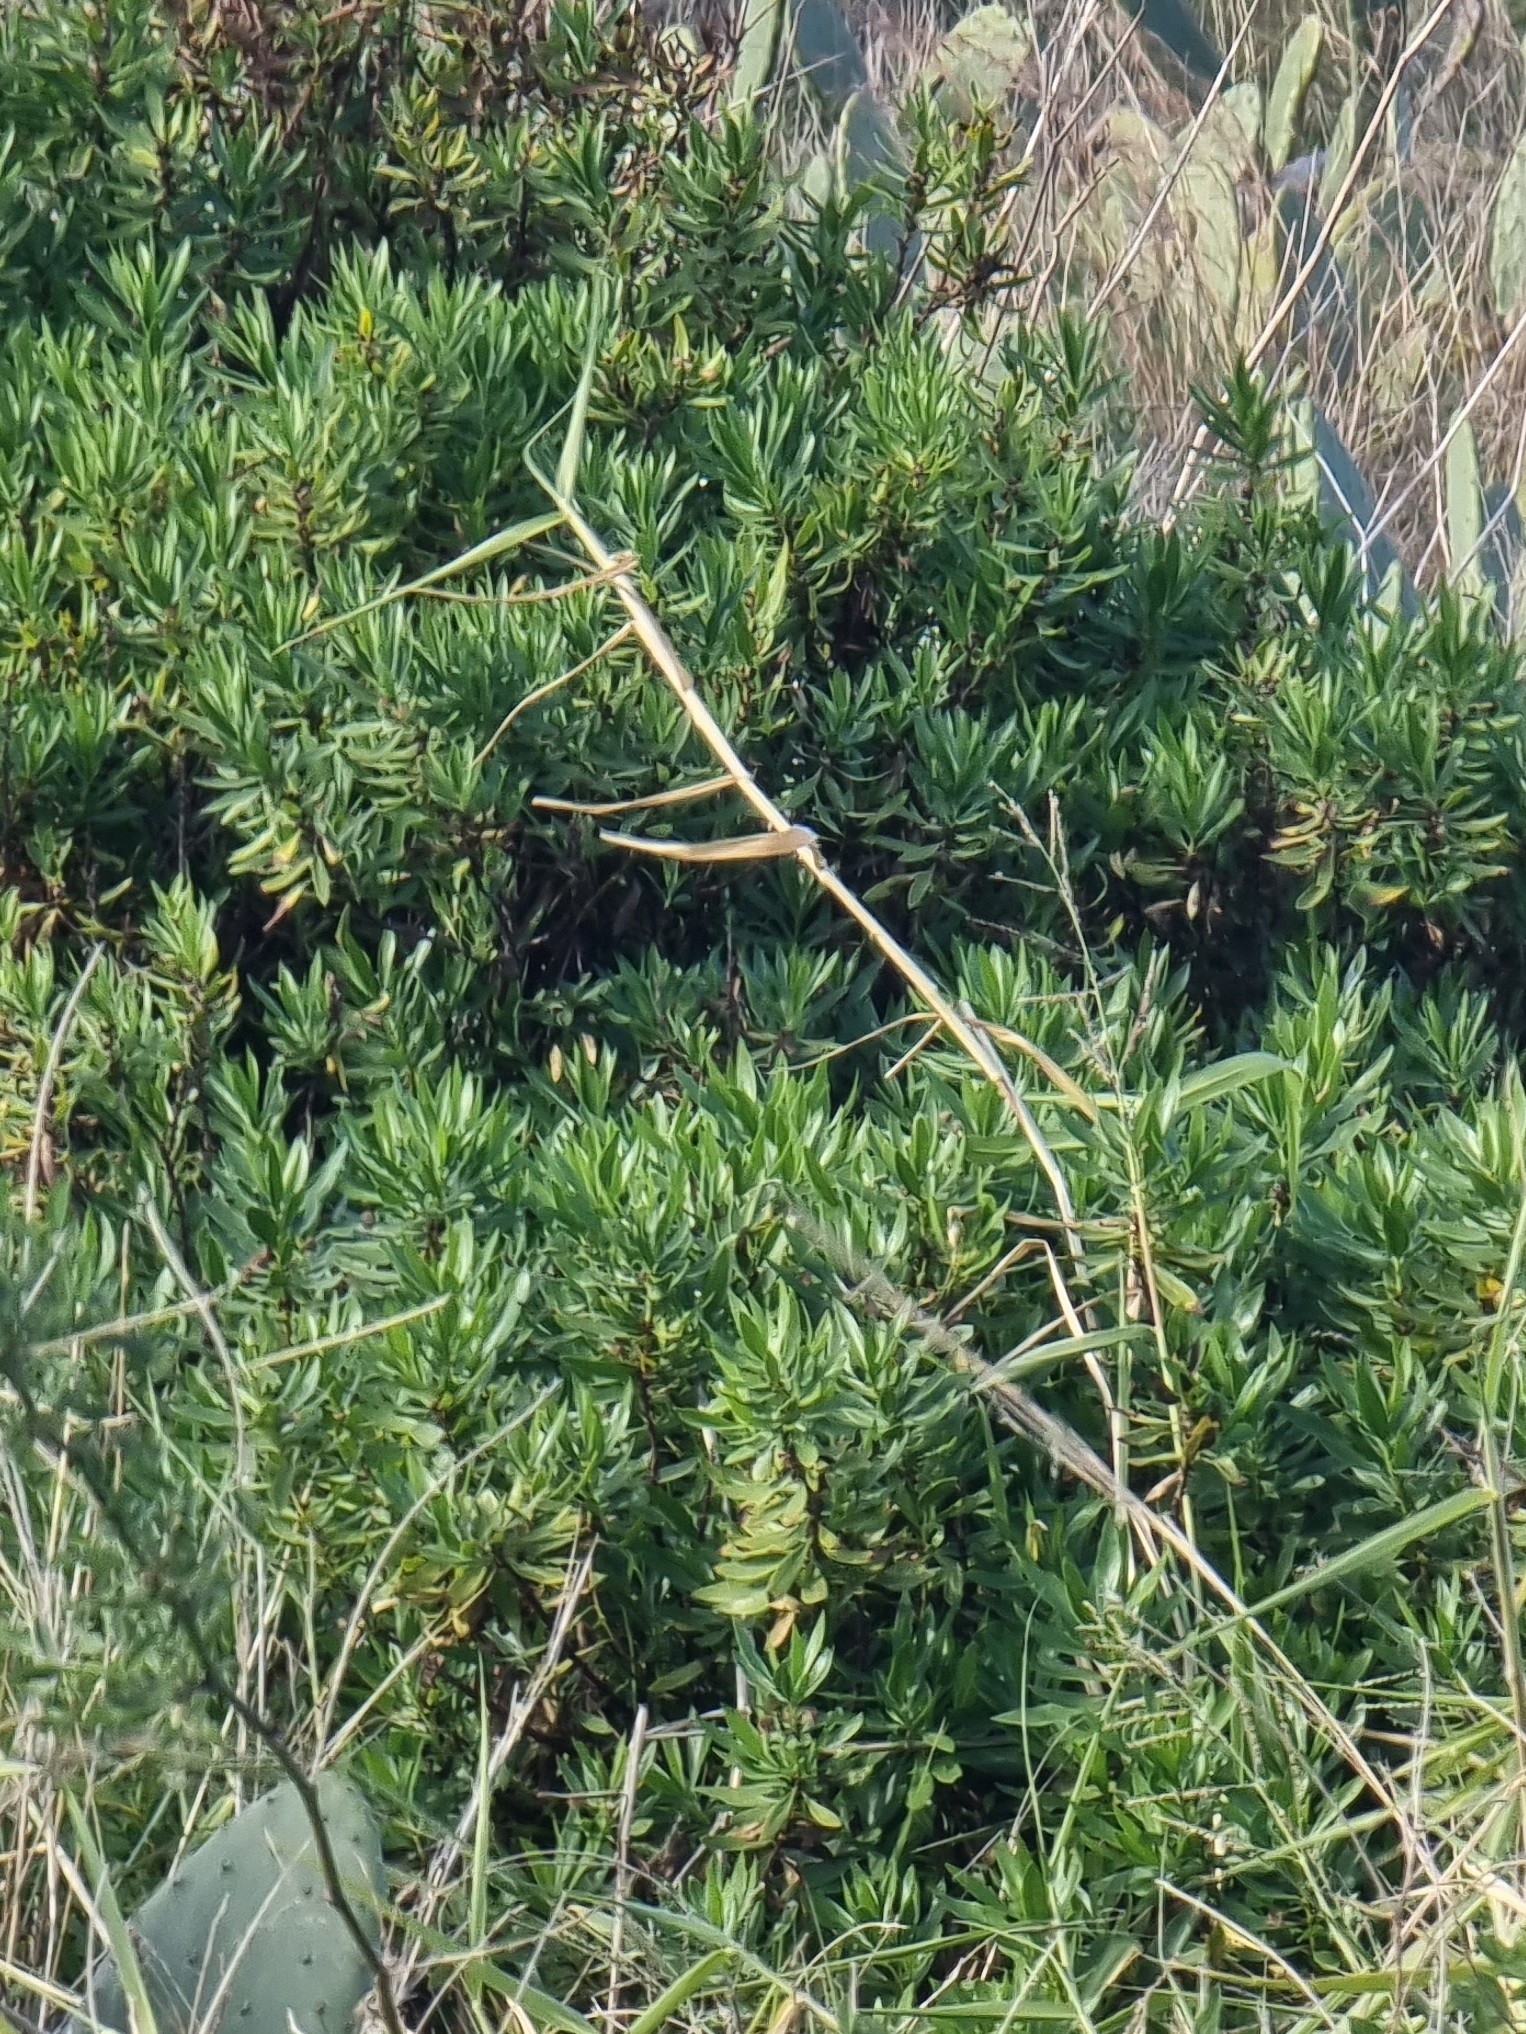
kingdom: Plantae
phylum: Tracheophyta
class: Magnoliopsida
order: Lamiales
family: Plantaginaceae
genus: Globularia
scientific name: Globularia salicina
